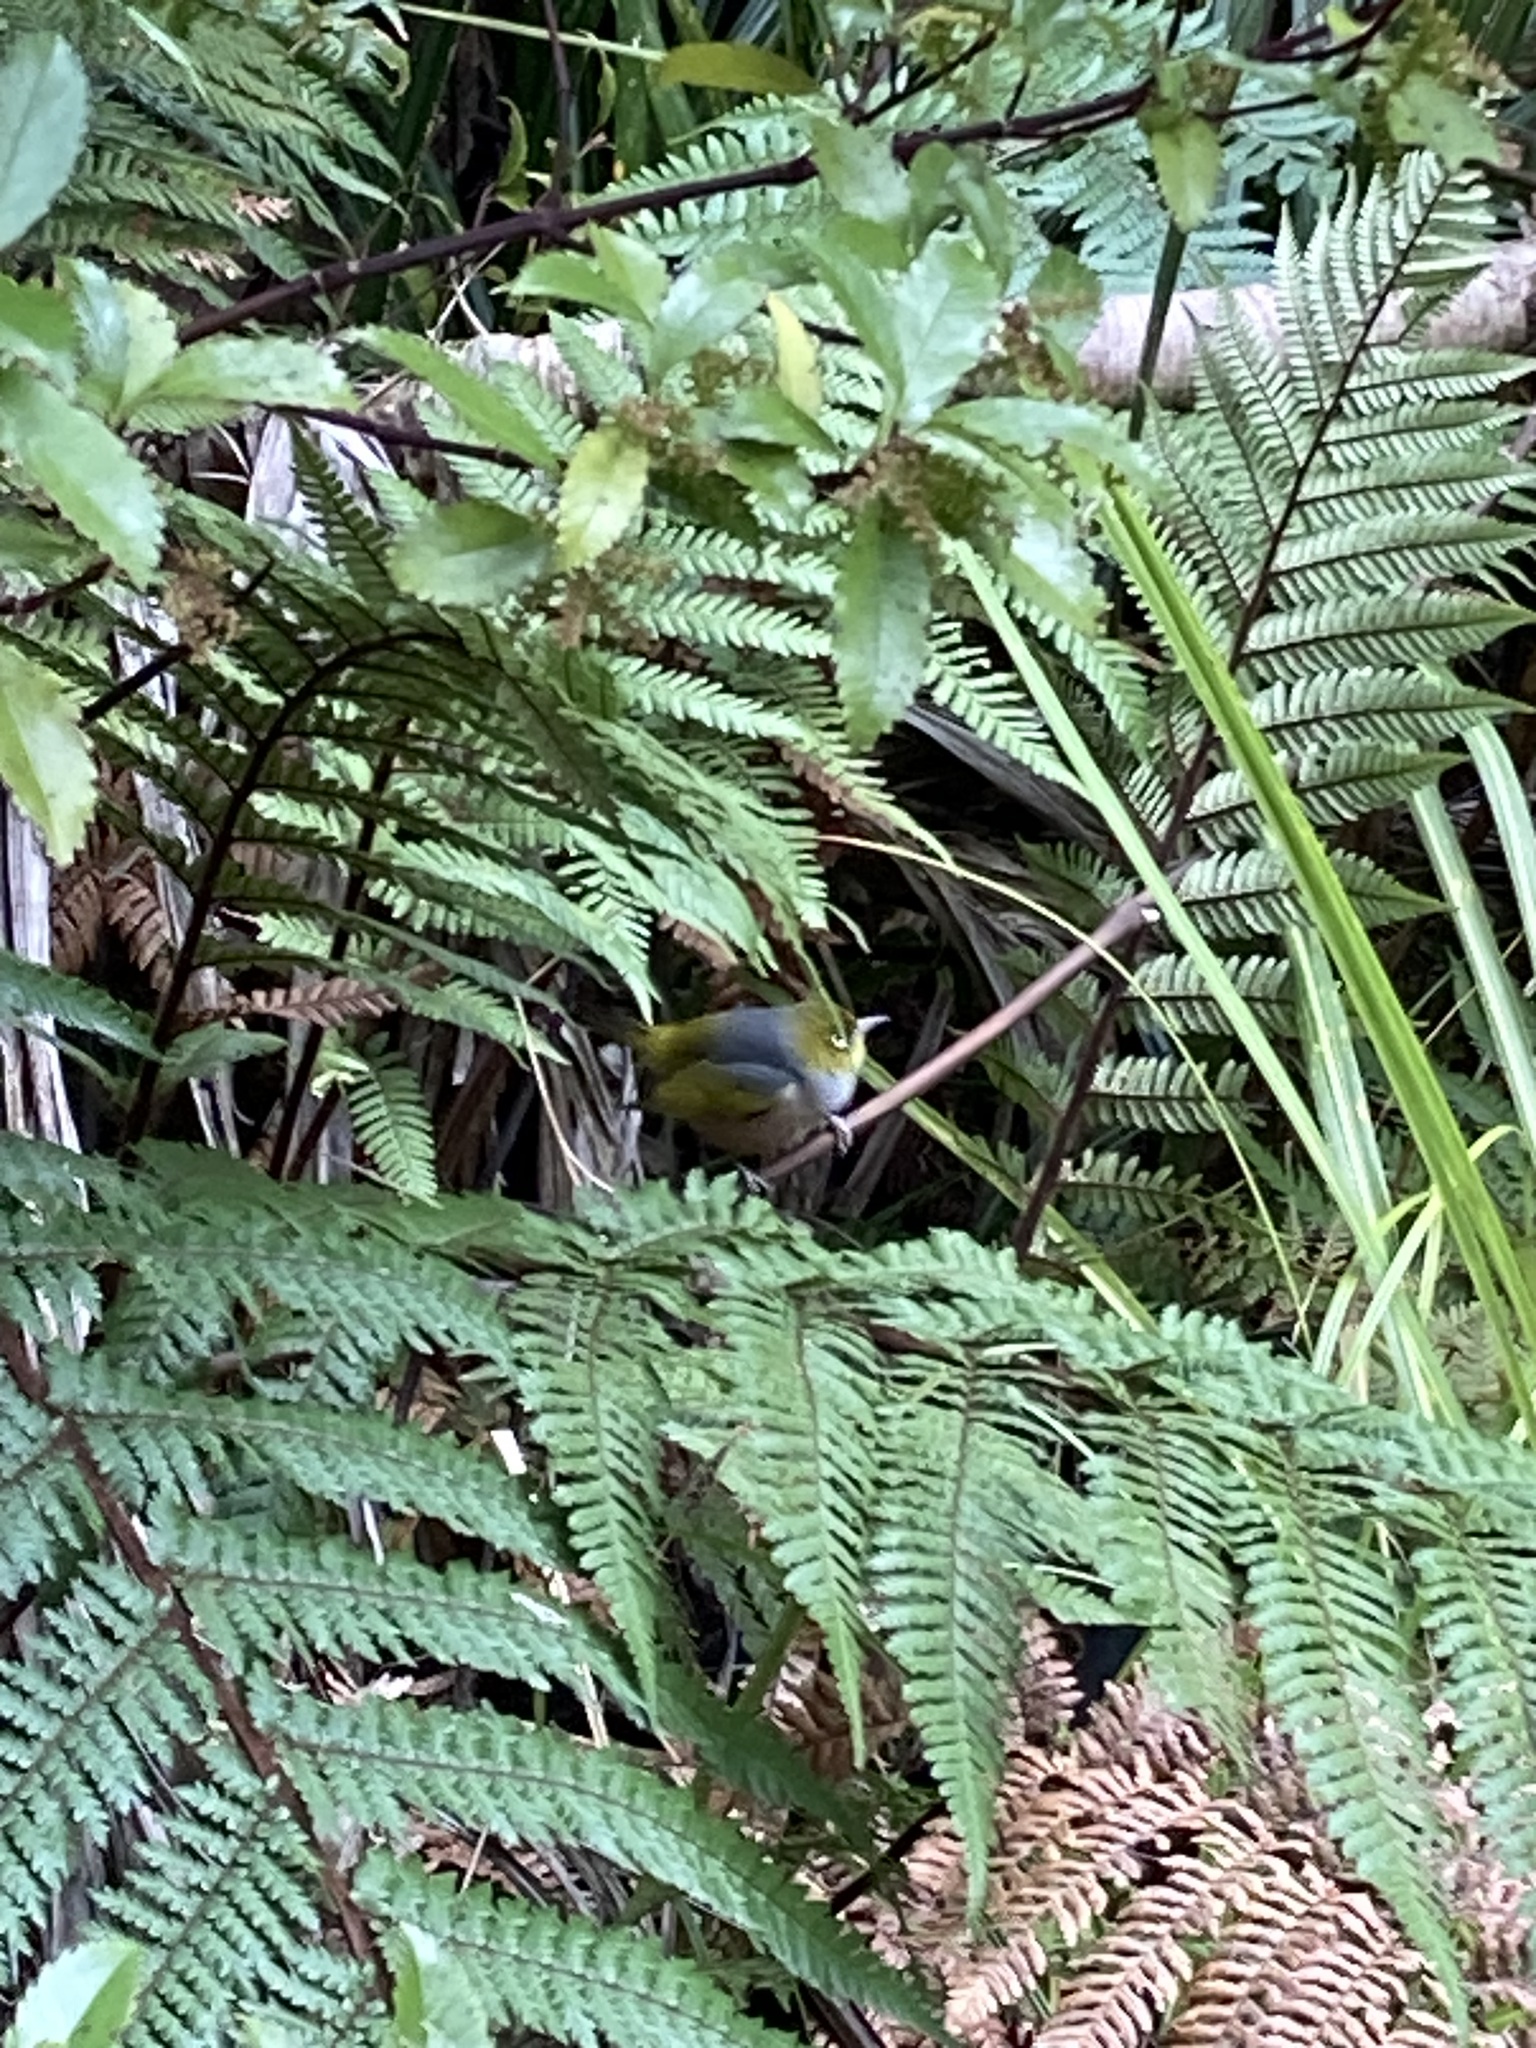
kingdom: Animalia
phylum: Chordata
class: Aves
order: Passeriformes
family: Zosteropidae
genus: Zosterops
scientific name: Zosterops lateralis
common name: Silvereye
